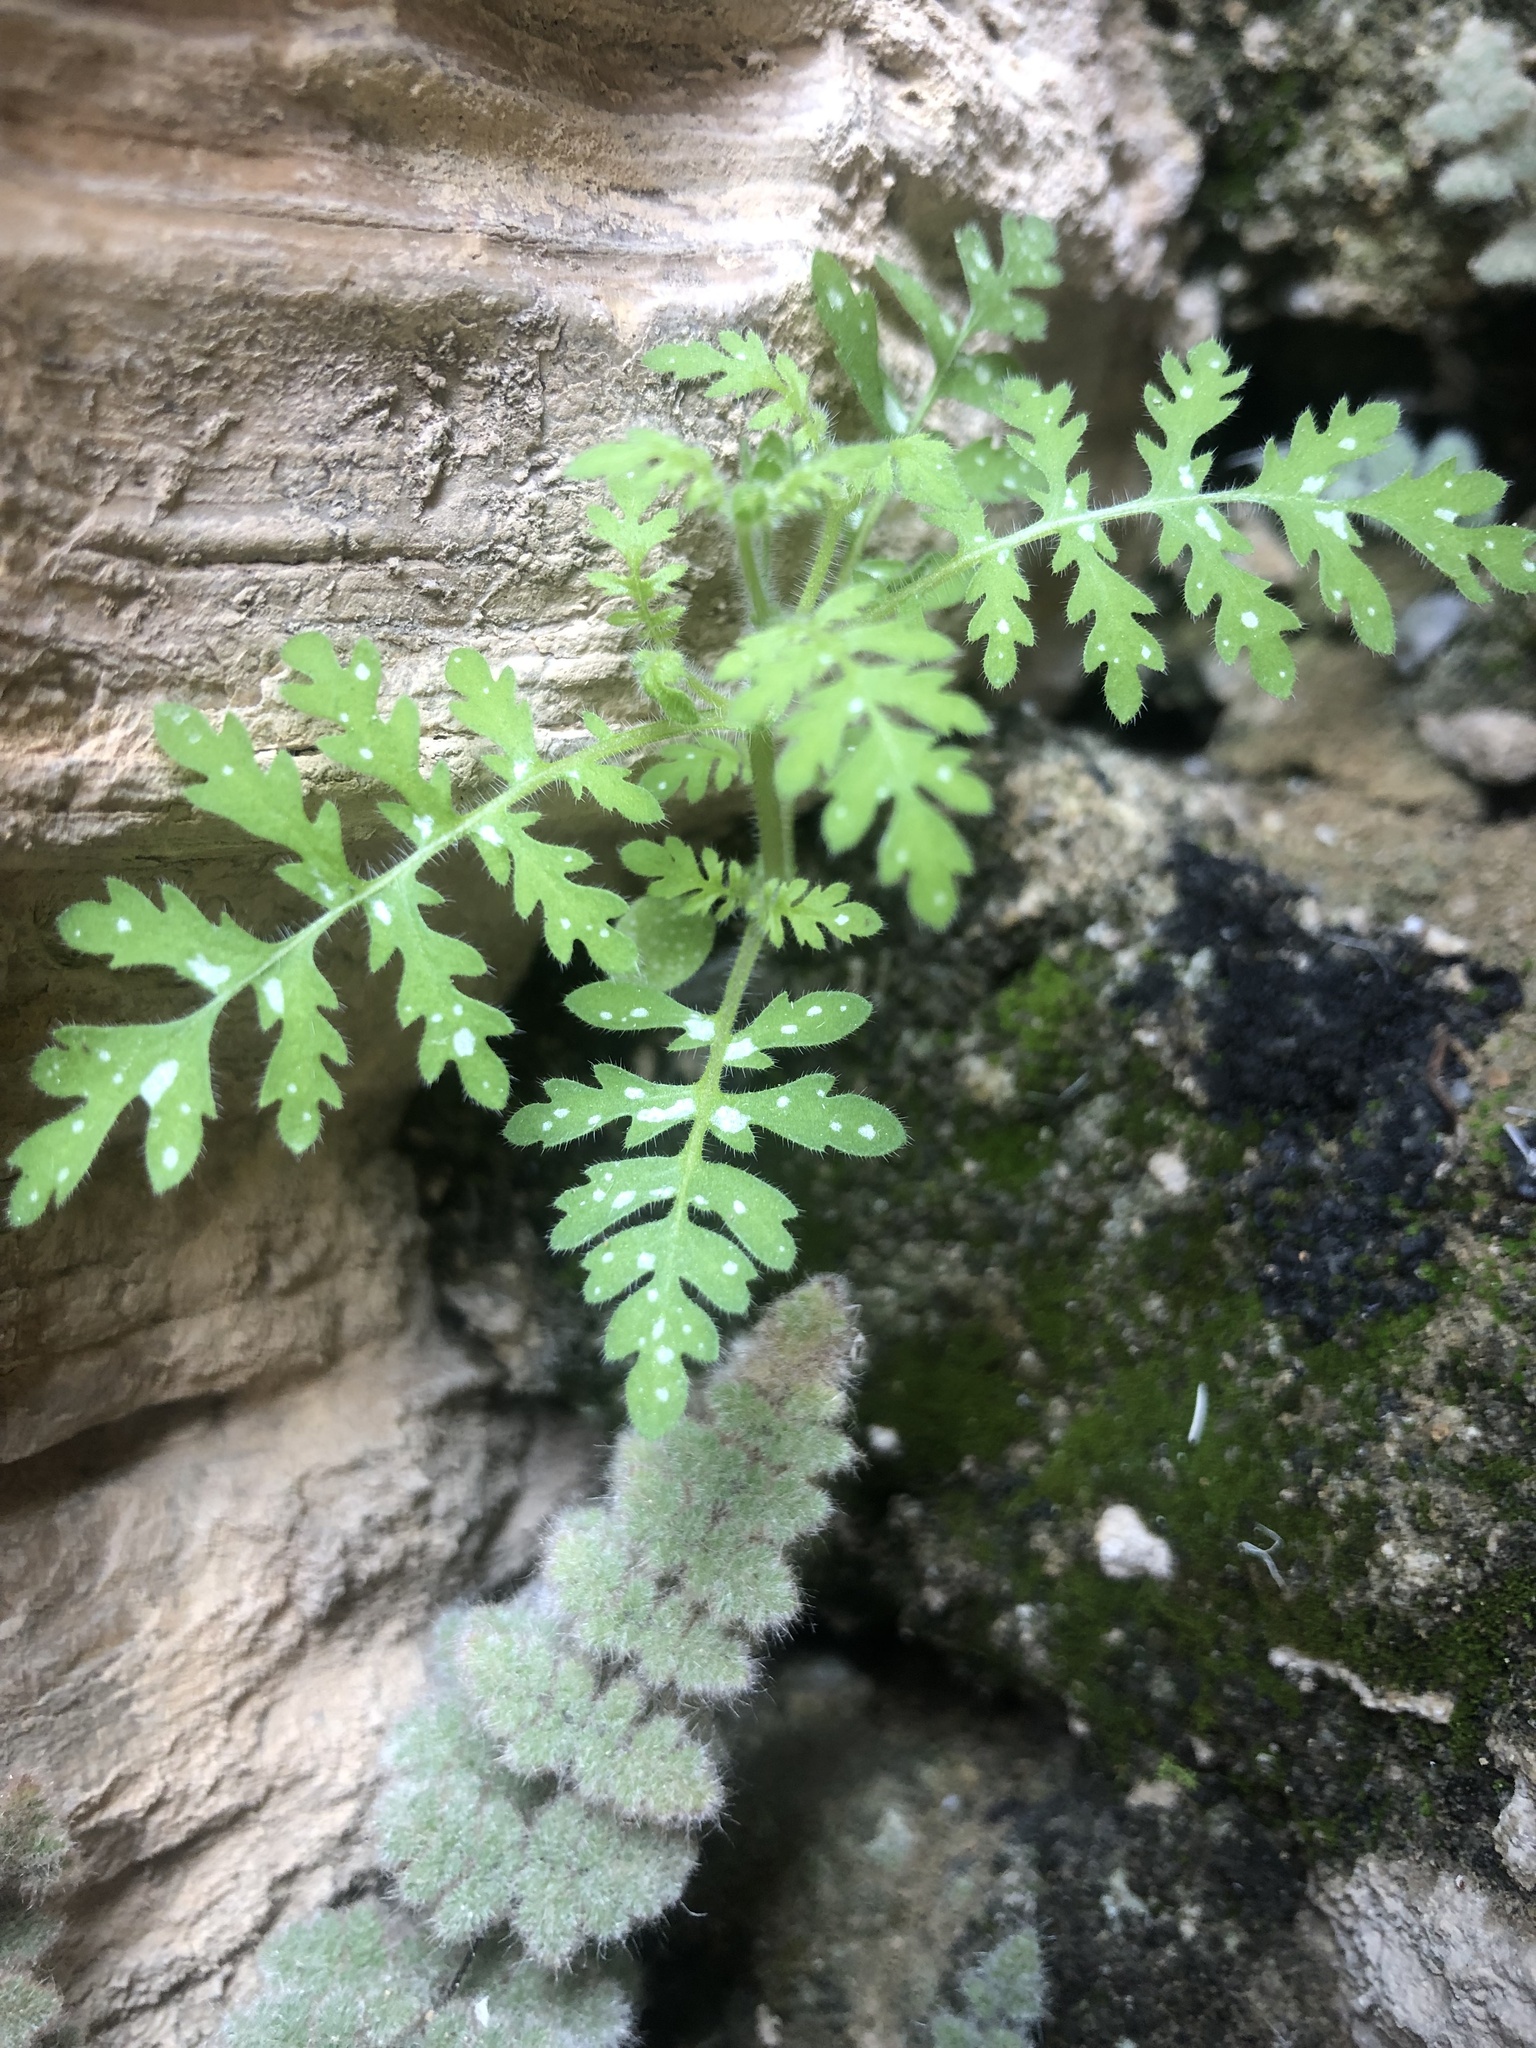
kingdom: Plantae
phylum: Tracheophyta
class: Magnoliopsida
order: Boraginales
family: Hydrophyllaceae
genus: Eucrypta
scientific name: Eucrypta chrysanthemifolia
